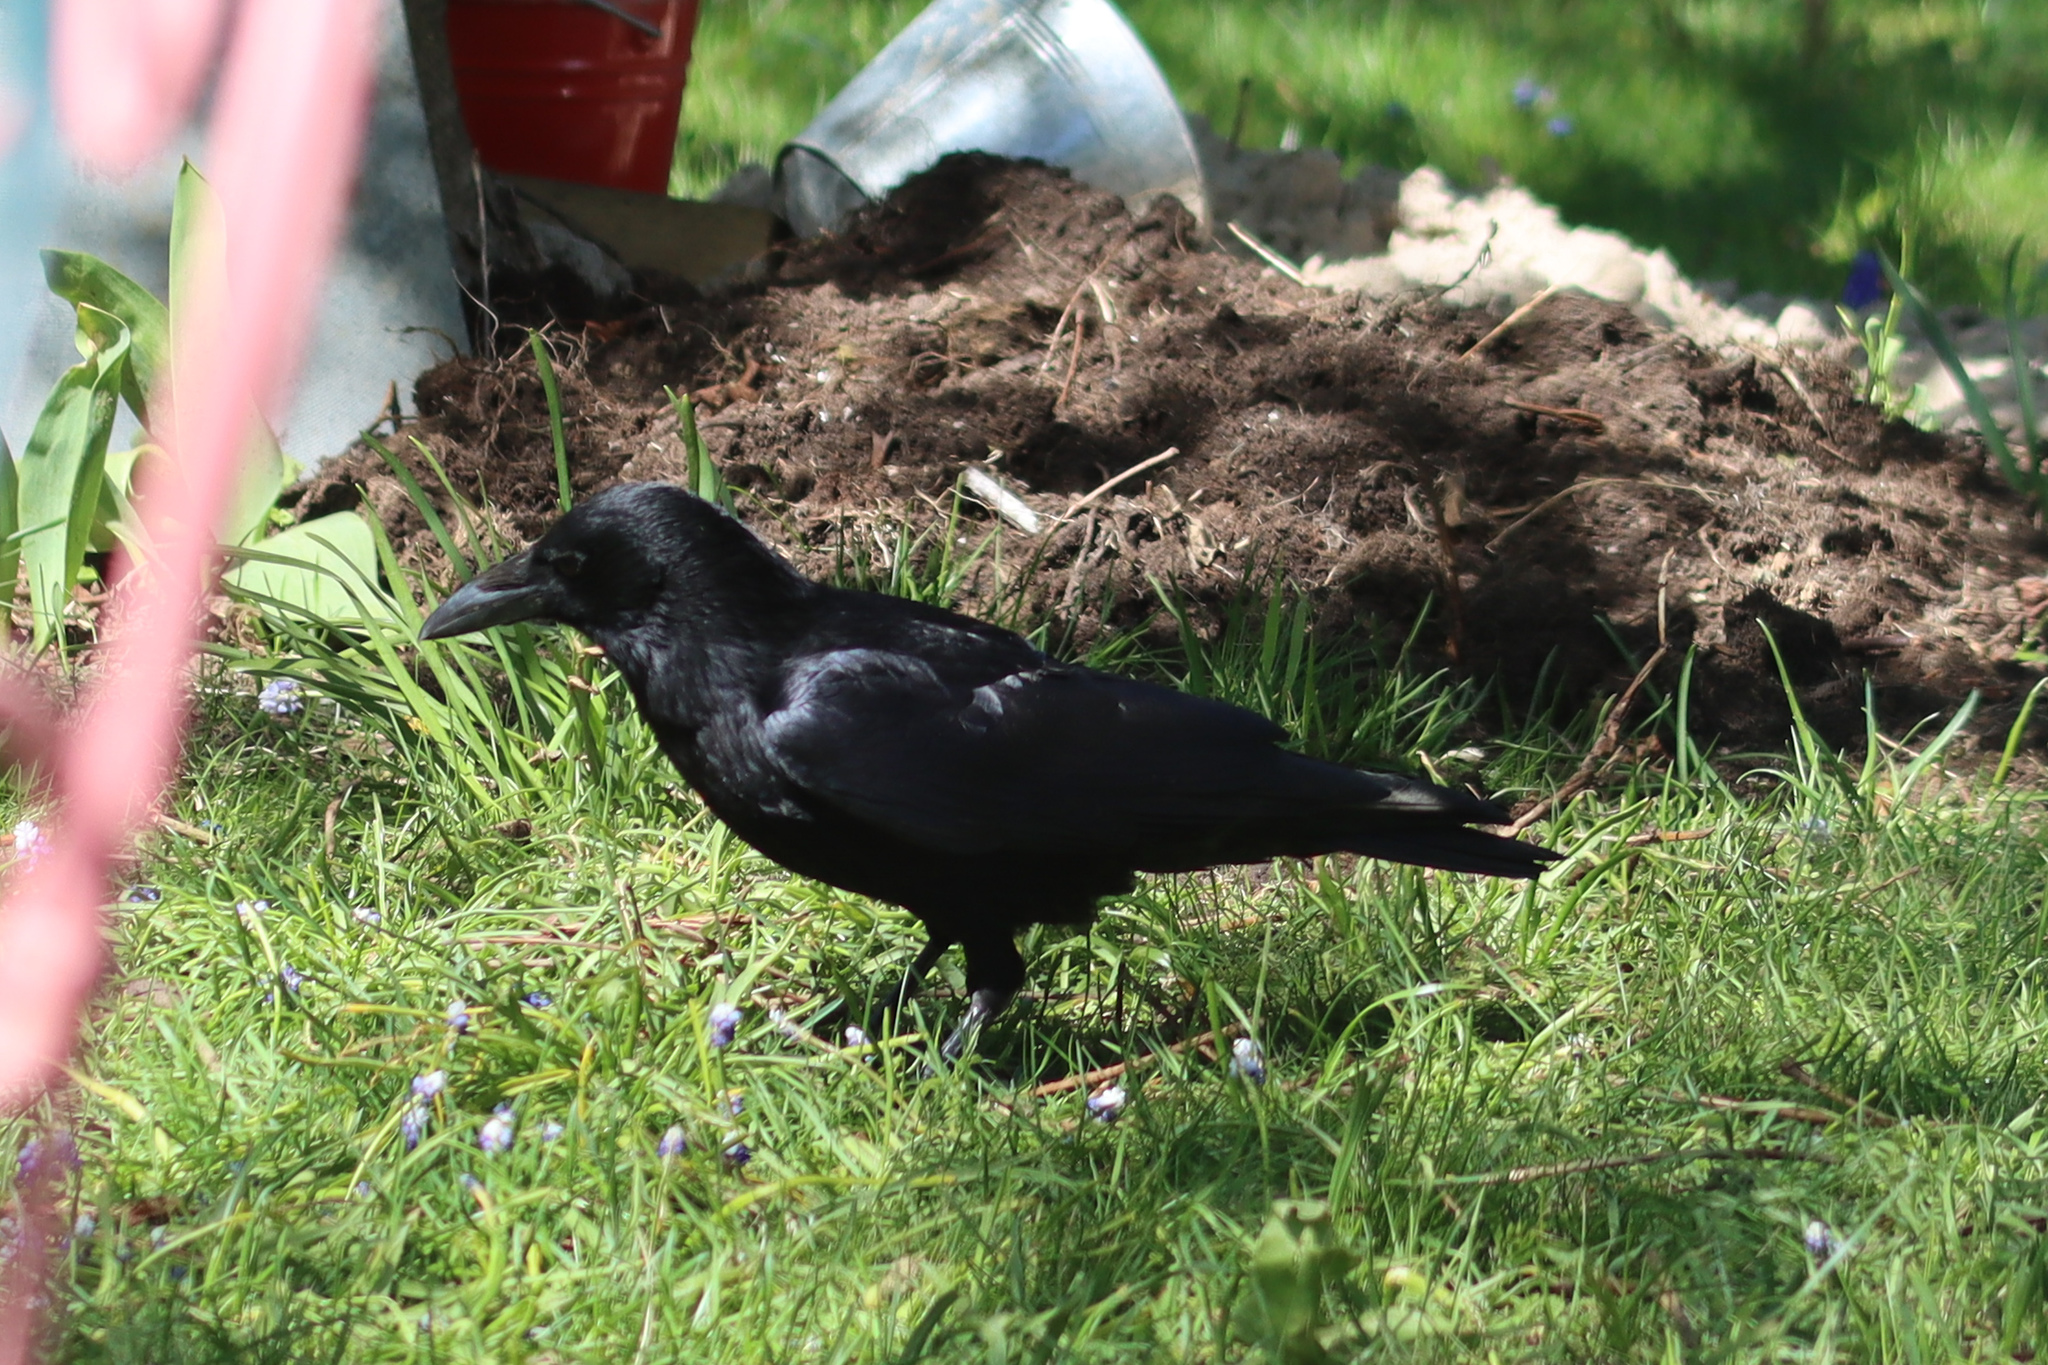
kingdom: Animalia
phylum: Chordata
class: Aves
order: Passeriformes
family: Corvidae
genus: Corvus
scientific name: Corvus corone
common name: Carrion crow
